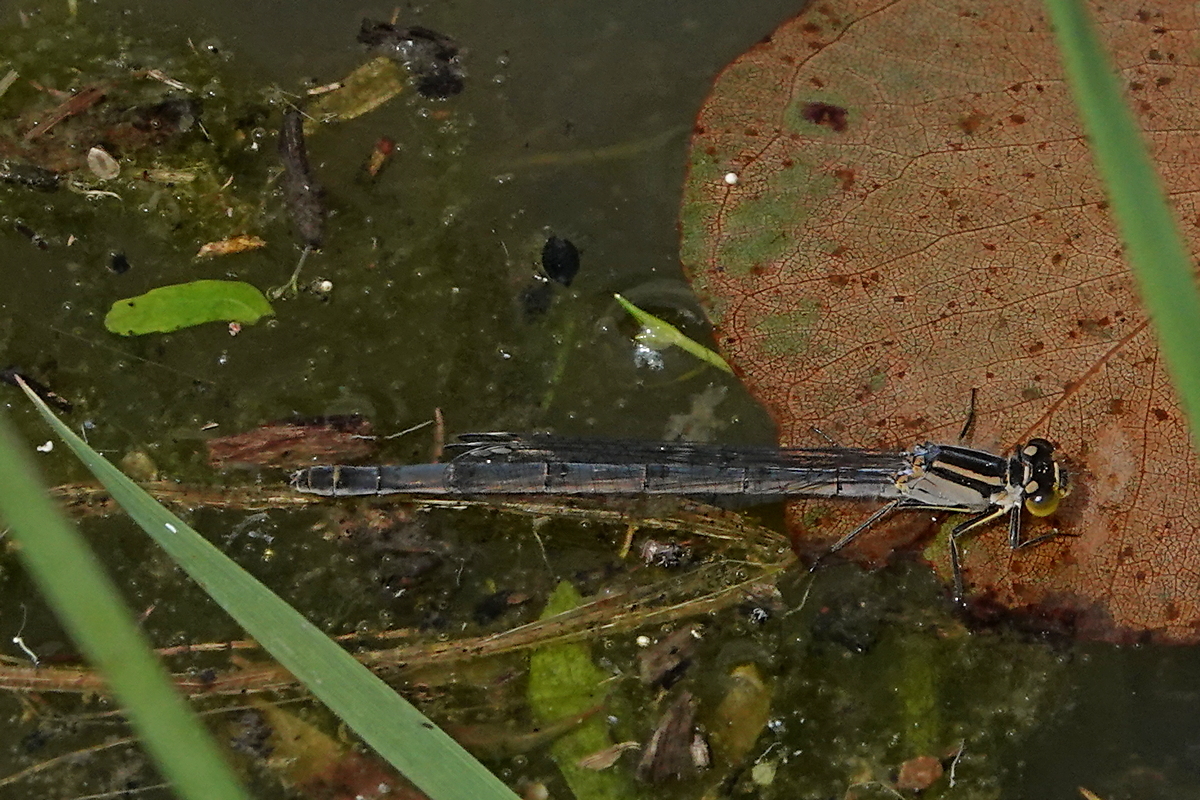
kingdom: Animalia
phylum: Arthropoda
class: Insecta
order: Odonata
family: Coenagrionidae
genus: Ischnura
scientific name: Ischnura heterosticta
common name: Common bluetail
